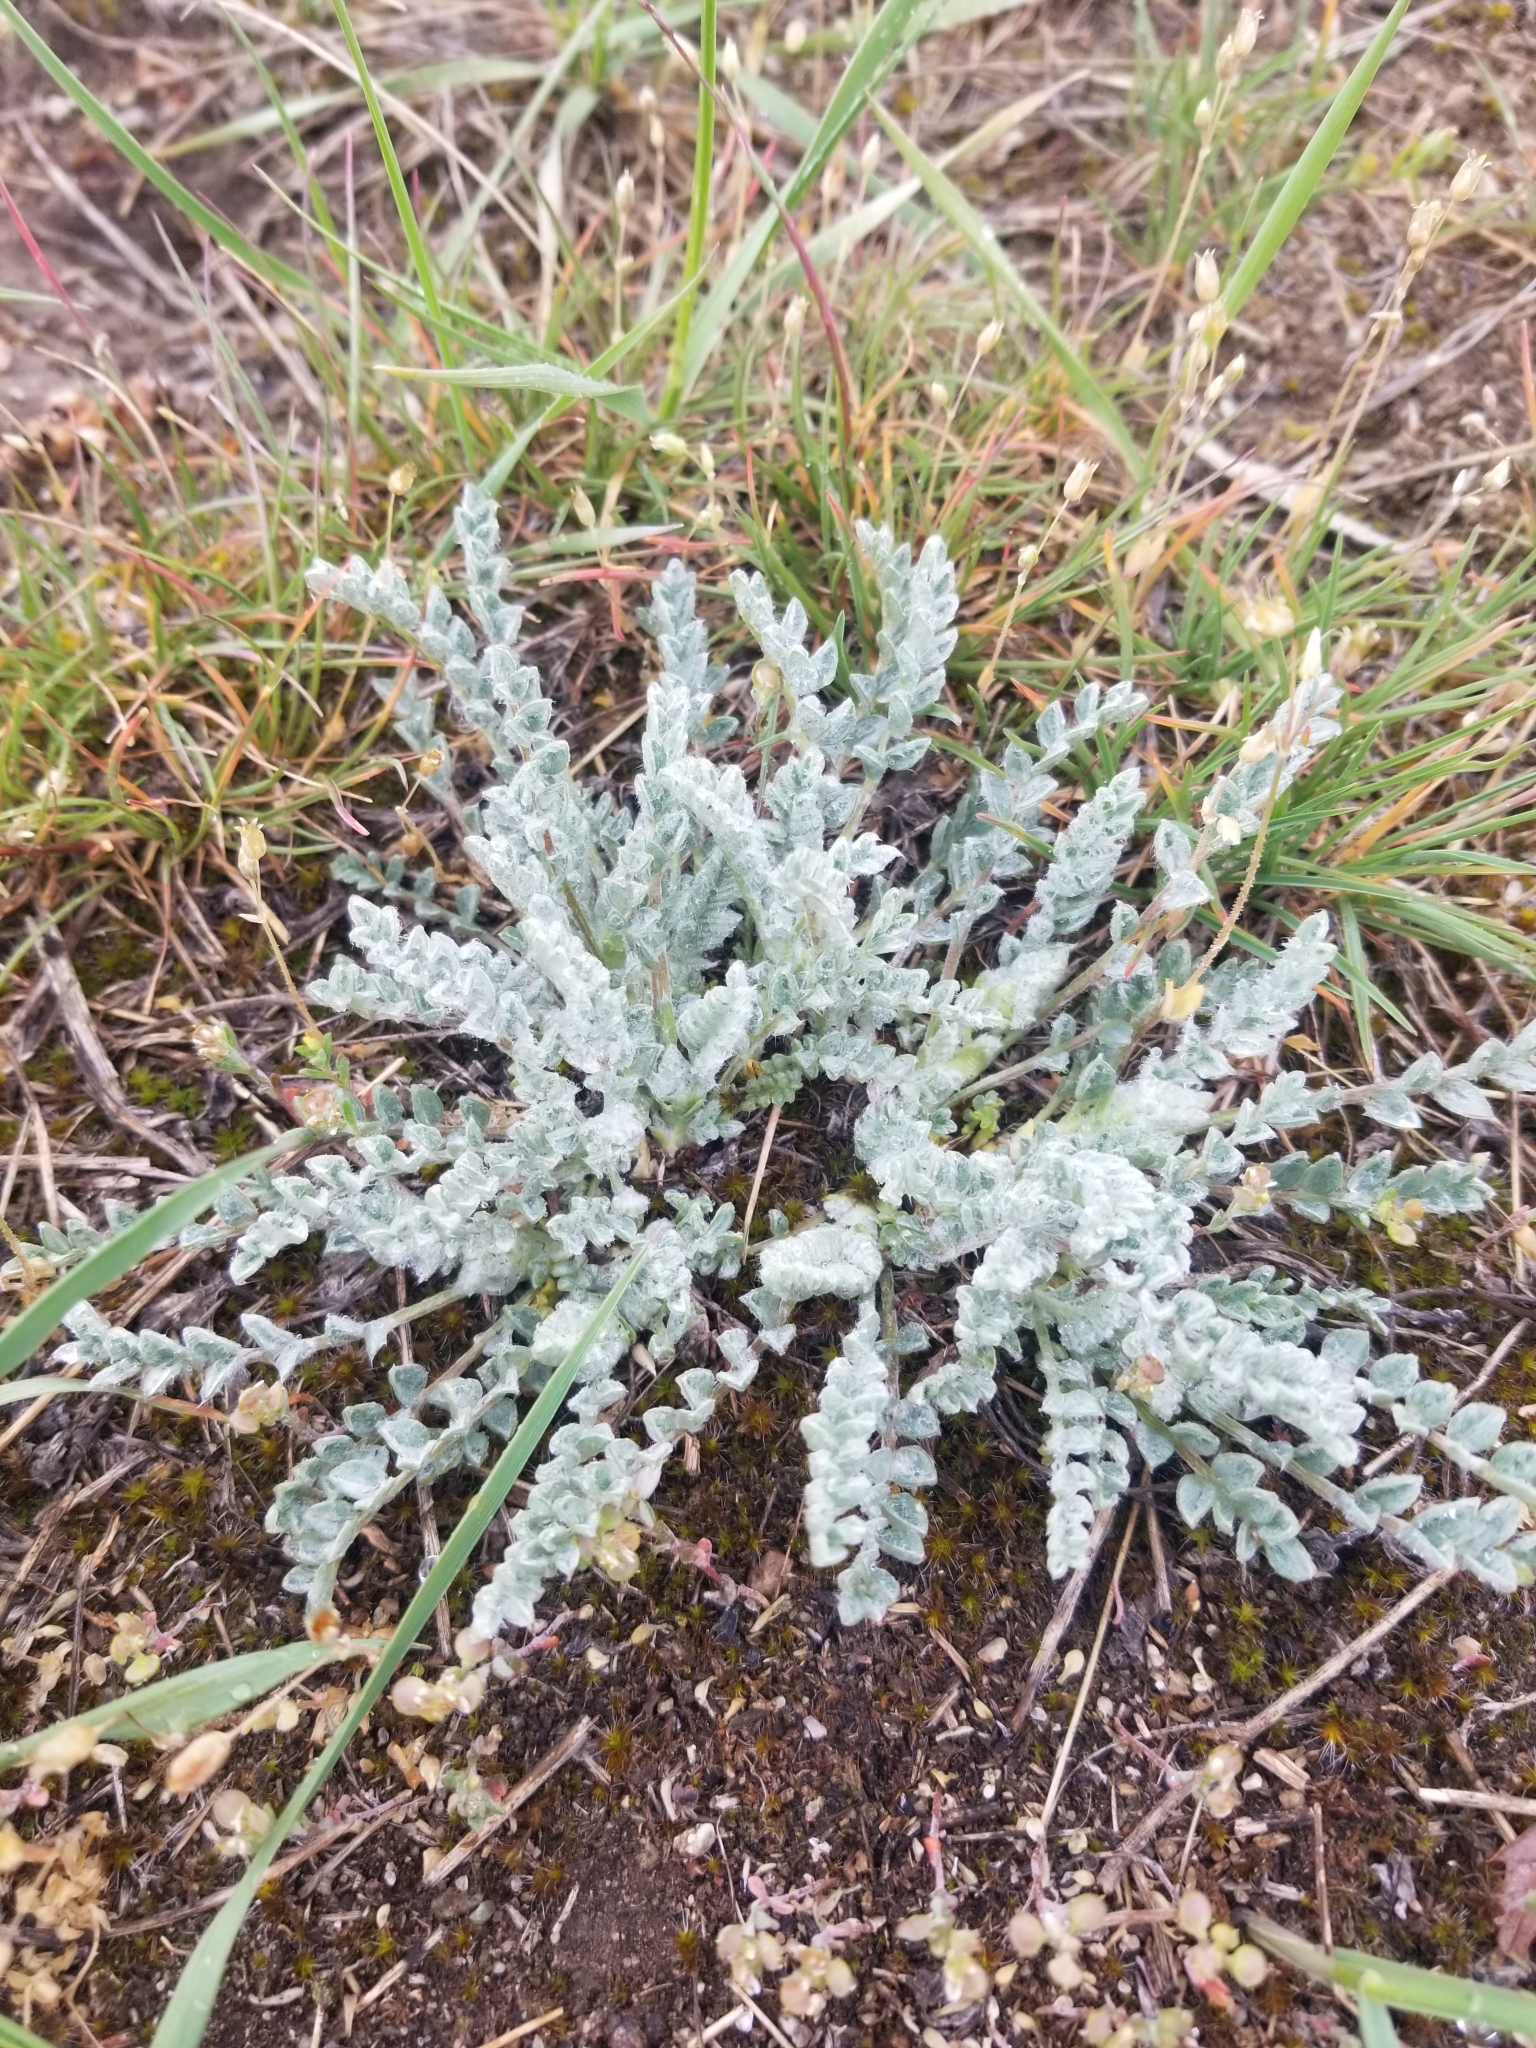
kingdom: Plantae
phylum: Tracheophyta
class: Magnoliopsida
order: Fabales
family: Fabaceae
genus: Astragalus
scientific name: Astragalus purshii
